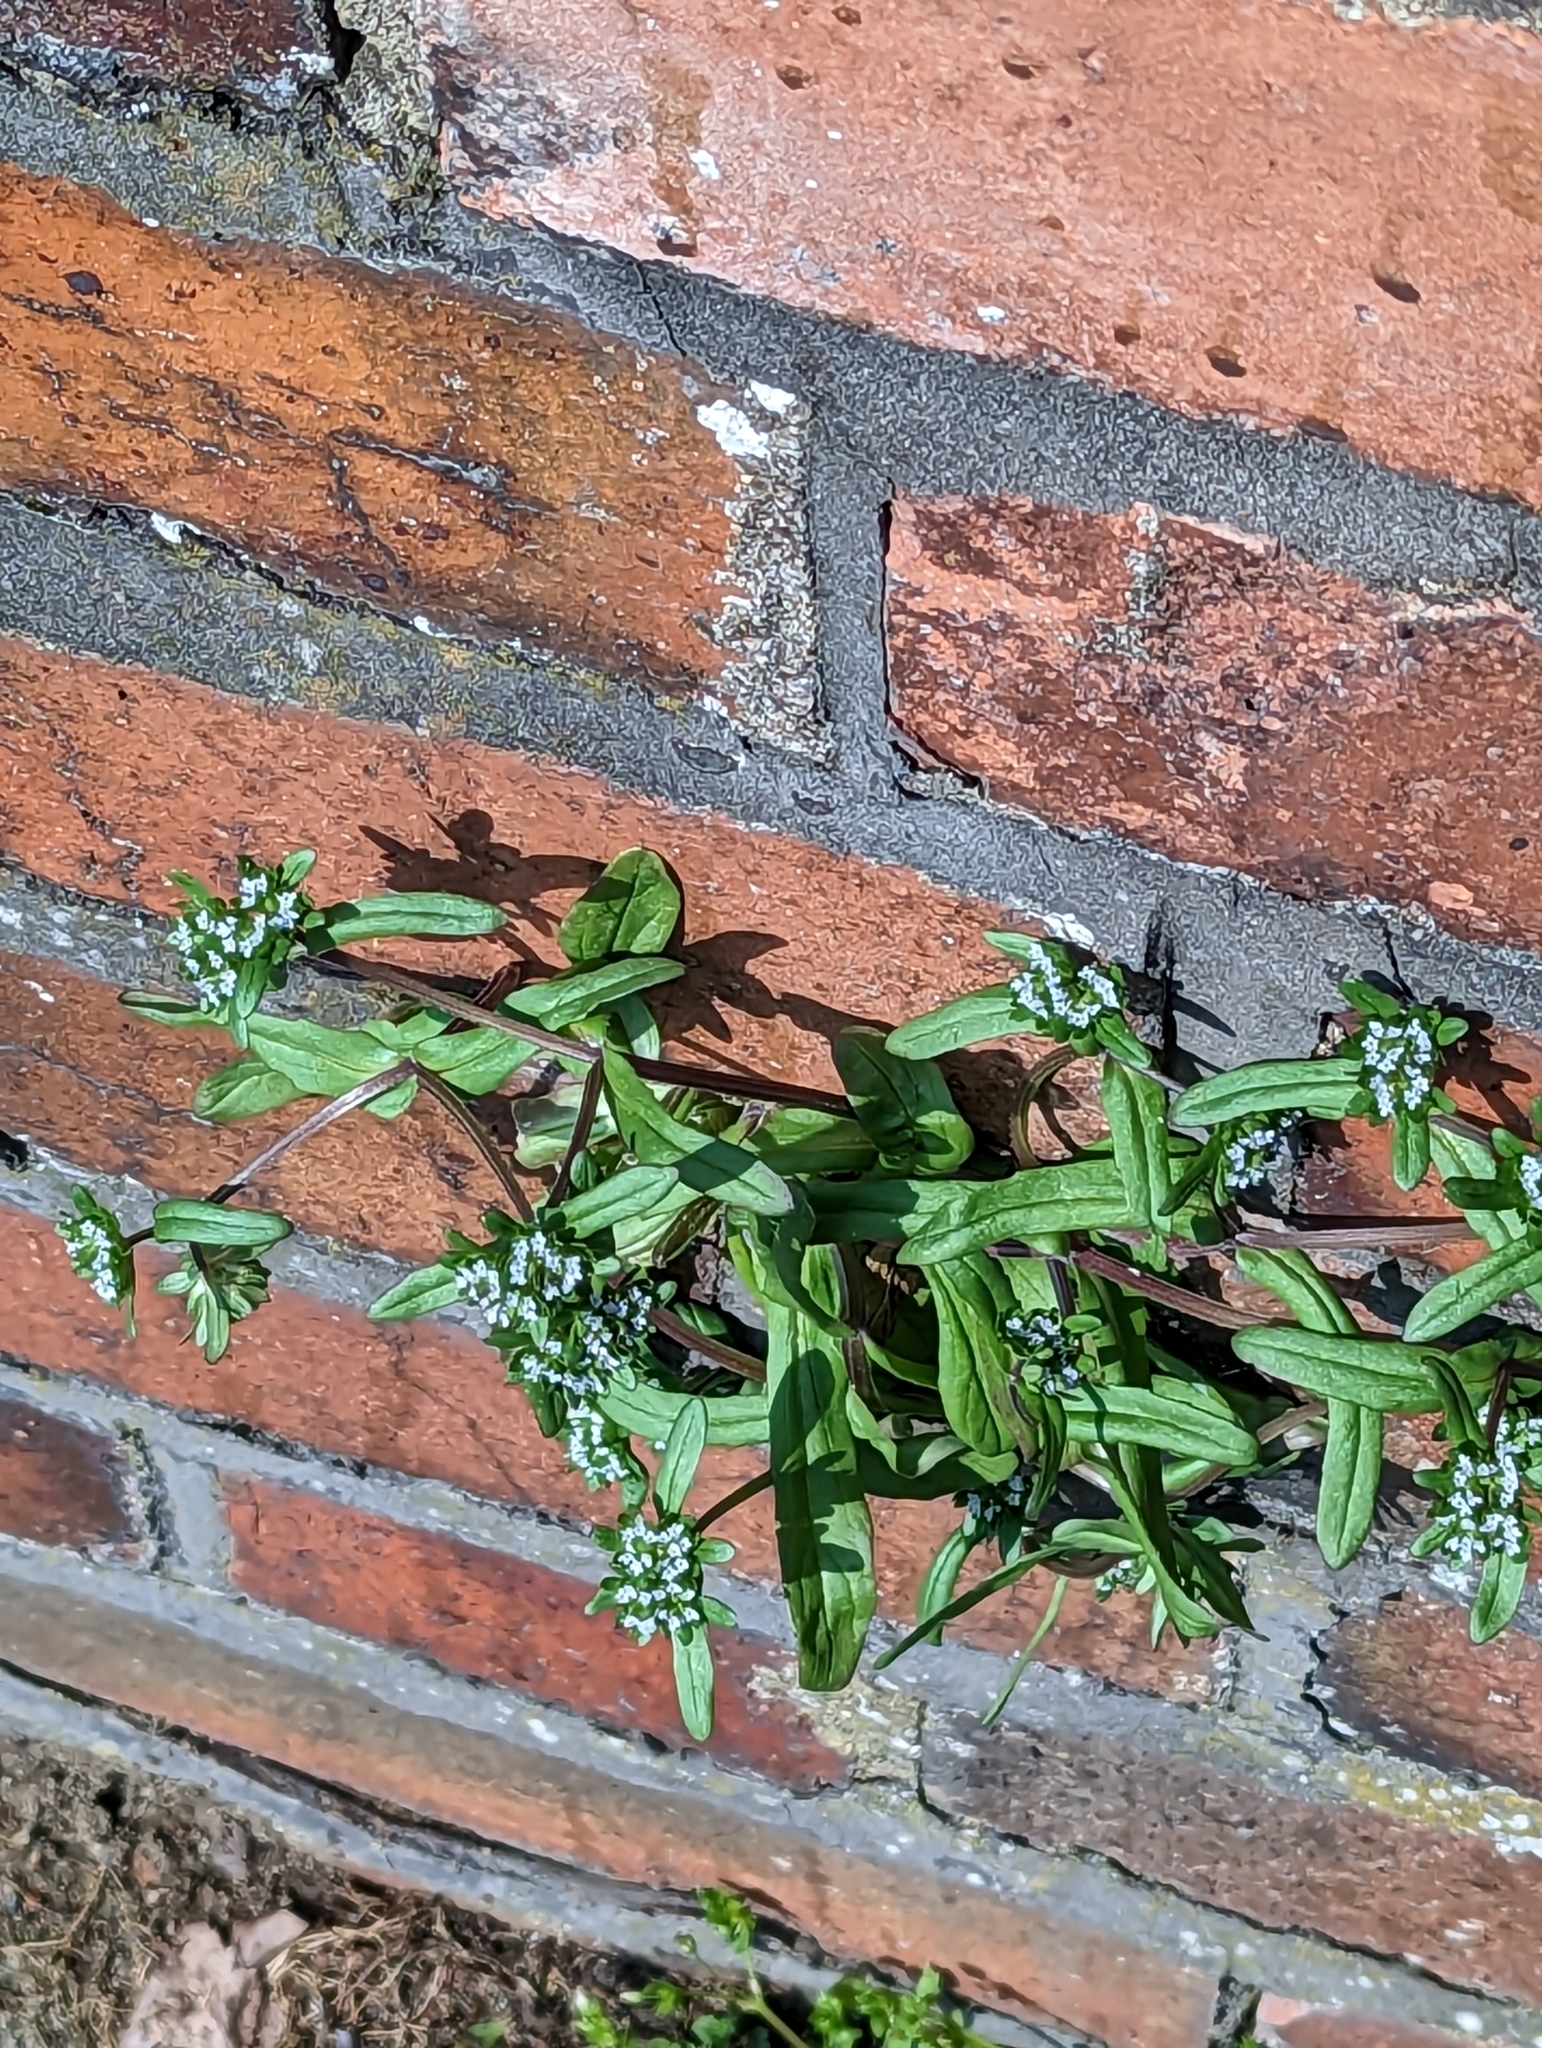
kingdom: Plantae
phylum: Tracheophyta
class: Magnoliopsida
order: Dipsacales
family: Caprifoliaceae
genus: Valerianella
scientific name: Valerianella locusta
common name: Common cornsalad
